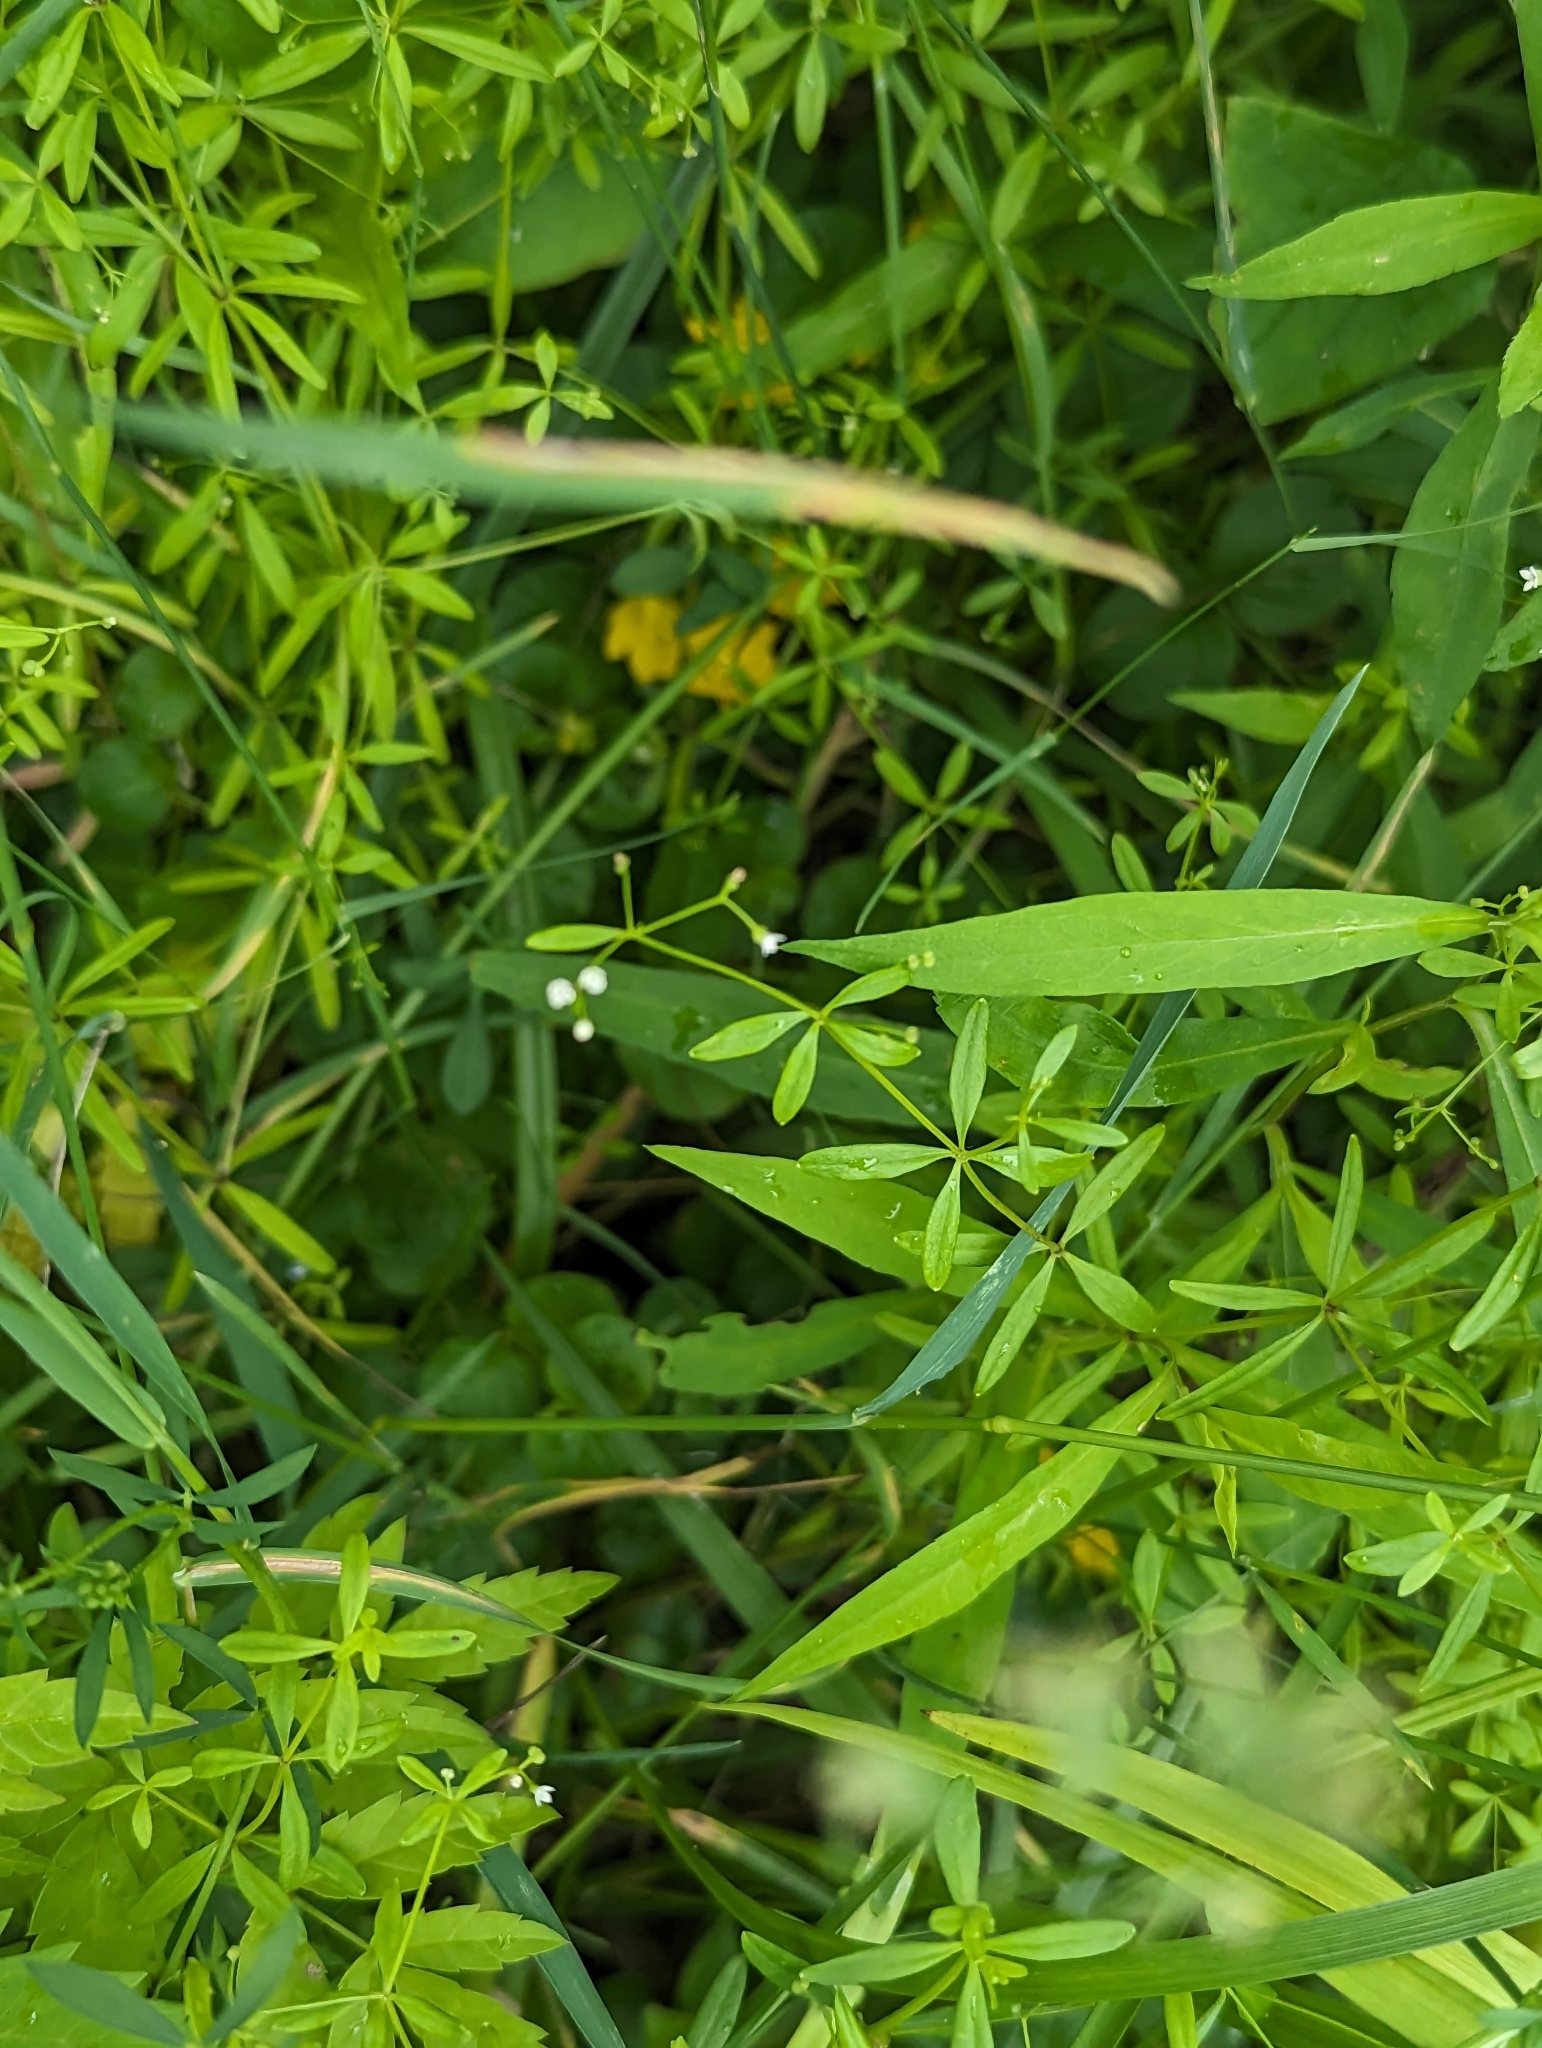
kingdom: Plantae
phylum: Tracheophyta
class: Magnoliopsida
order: Gentianales
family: Rubiaceae
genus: Galium
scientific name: Galium obtusum
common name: Blunt-leaved bedstraw
